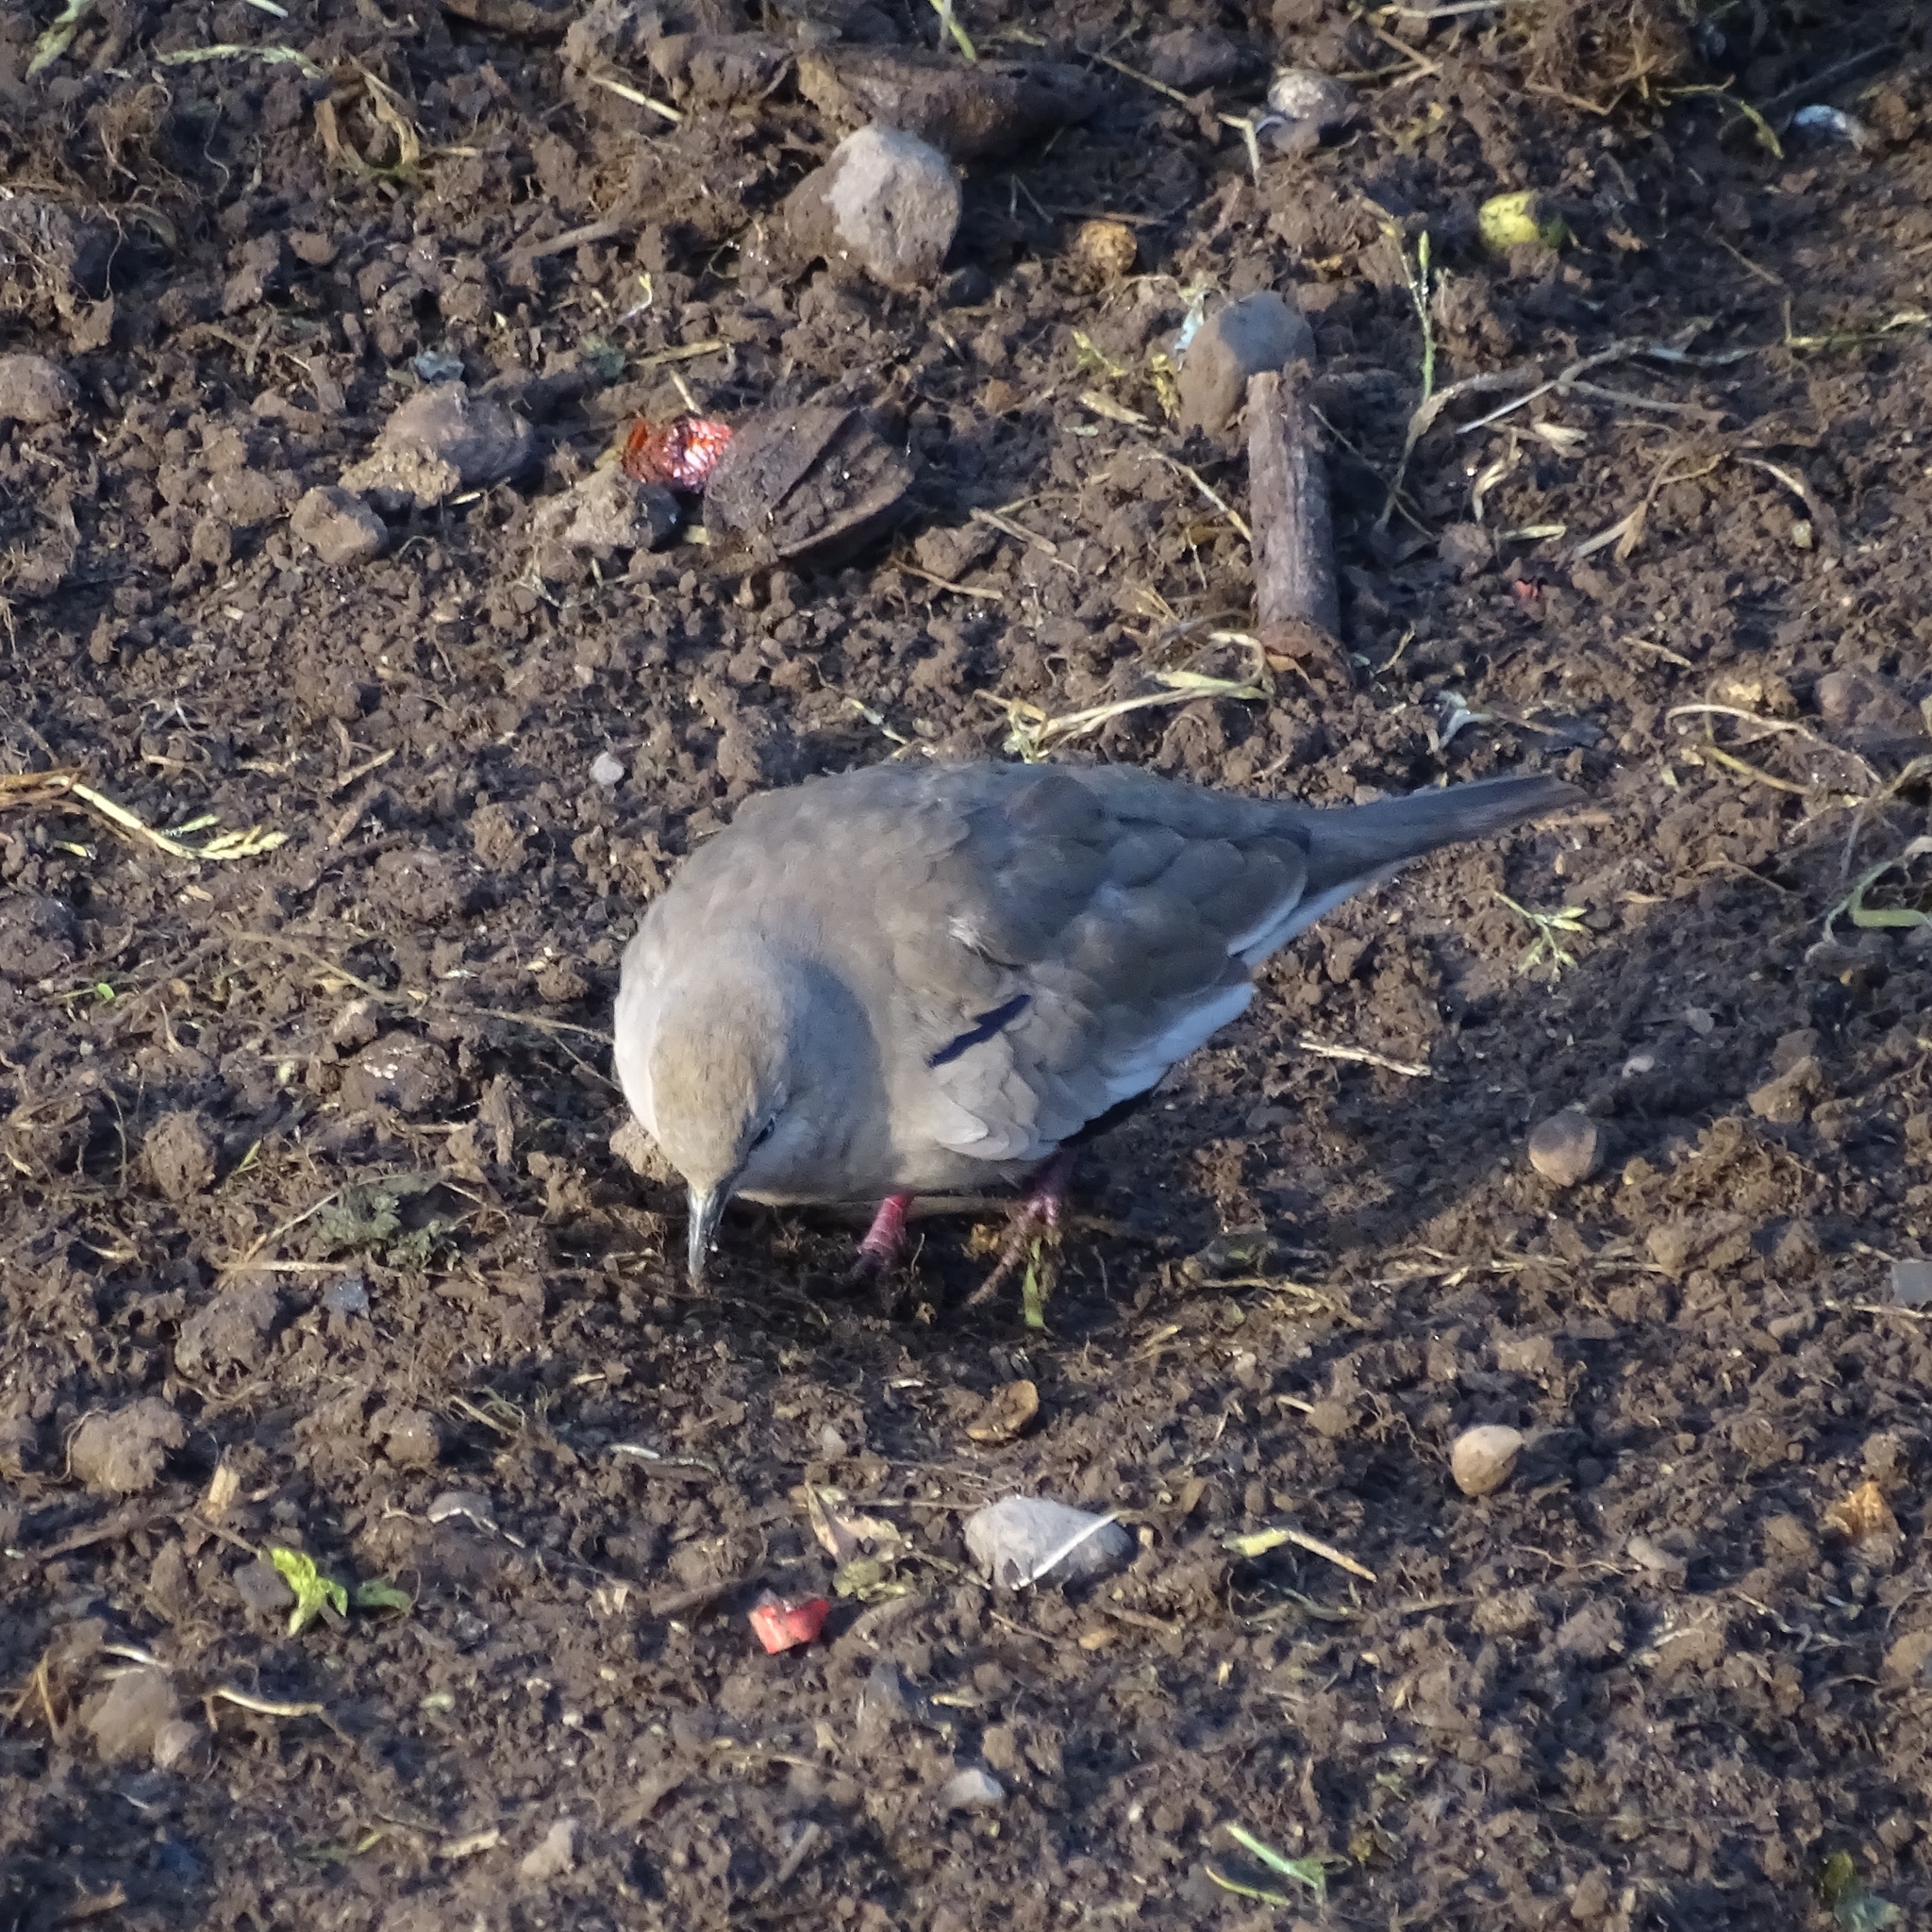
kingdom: Animalia
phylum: Chordata
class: Aves
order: Columbiformes
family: Columbidae
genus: Columbina
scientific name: Columbina picui
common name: Picui ground dove
